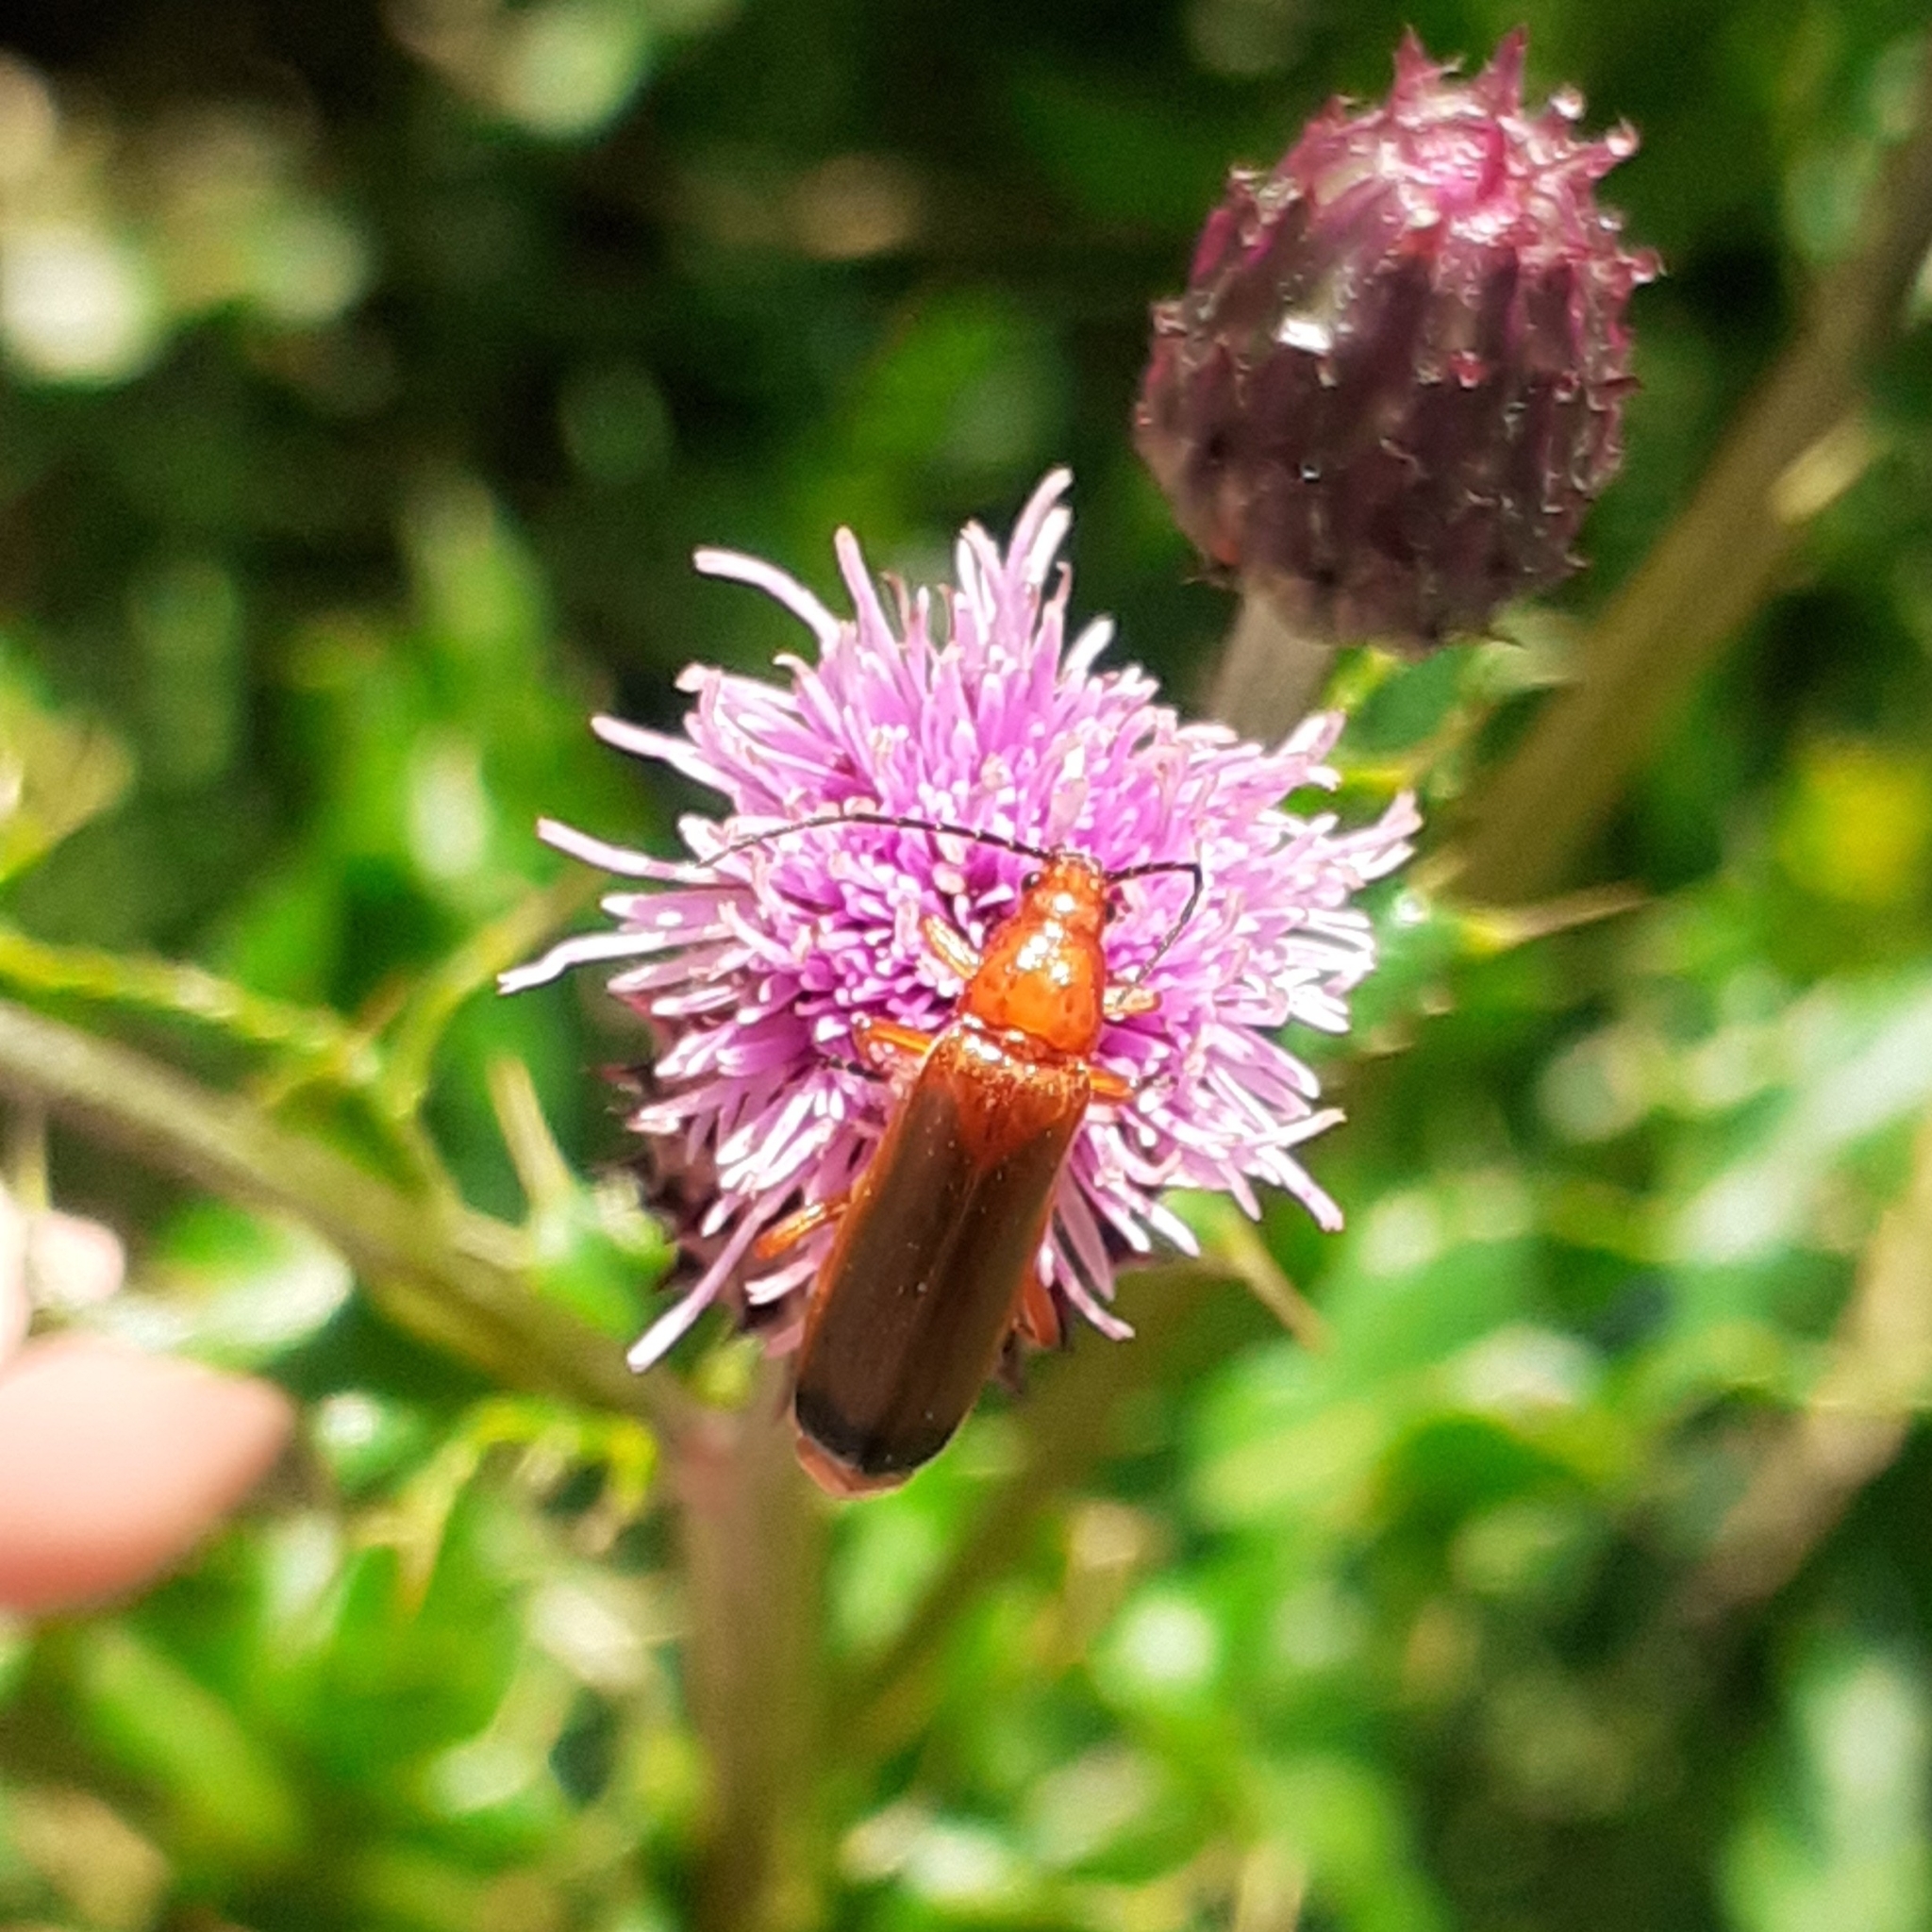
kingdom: Animalia
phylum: Arthropoda
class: Insecta
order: Coleoptera
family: Cantharidae
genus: Rhagonycha
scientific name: Rhagonycha fulva
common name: Common red soldier beetle
